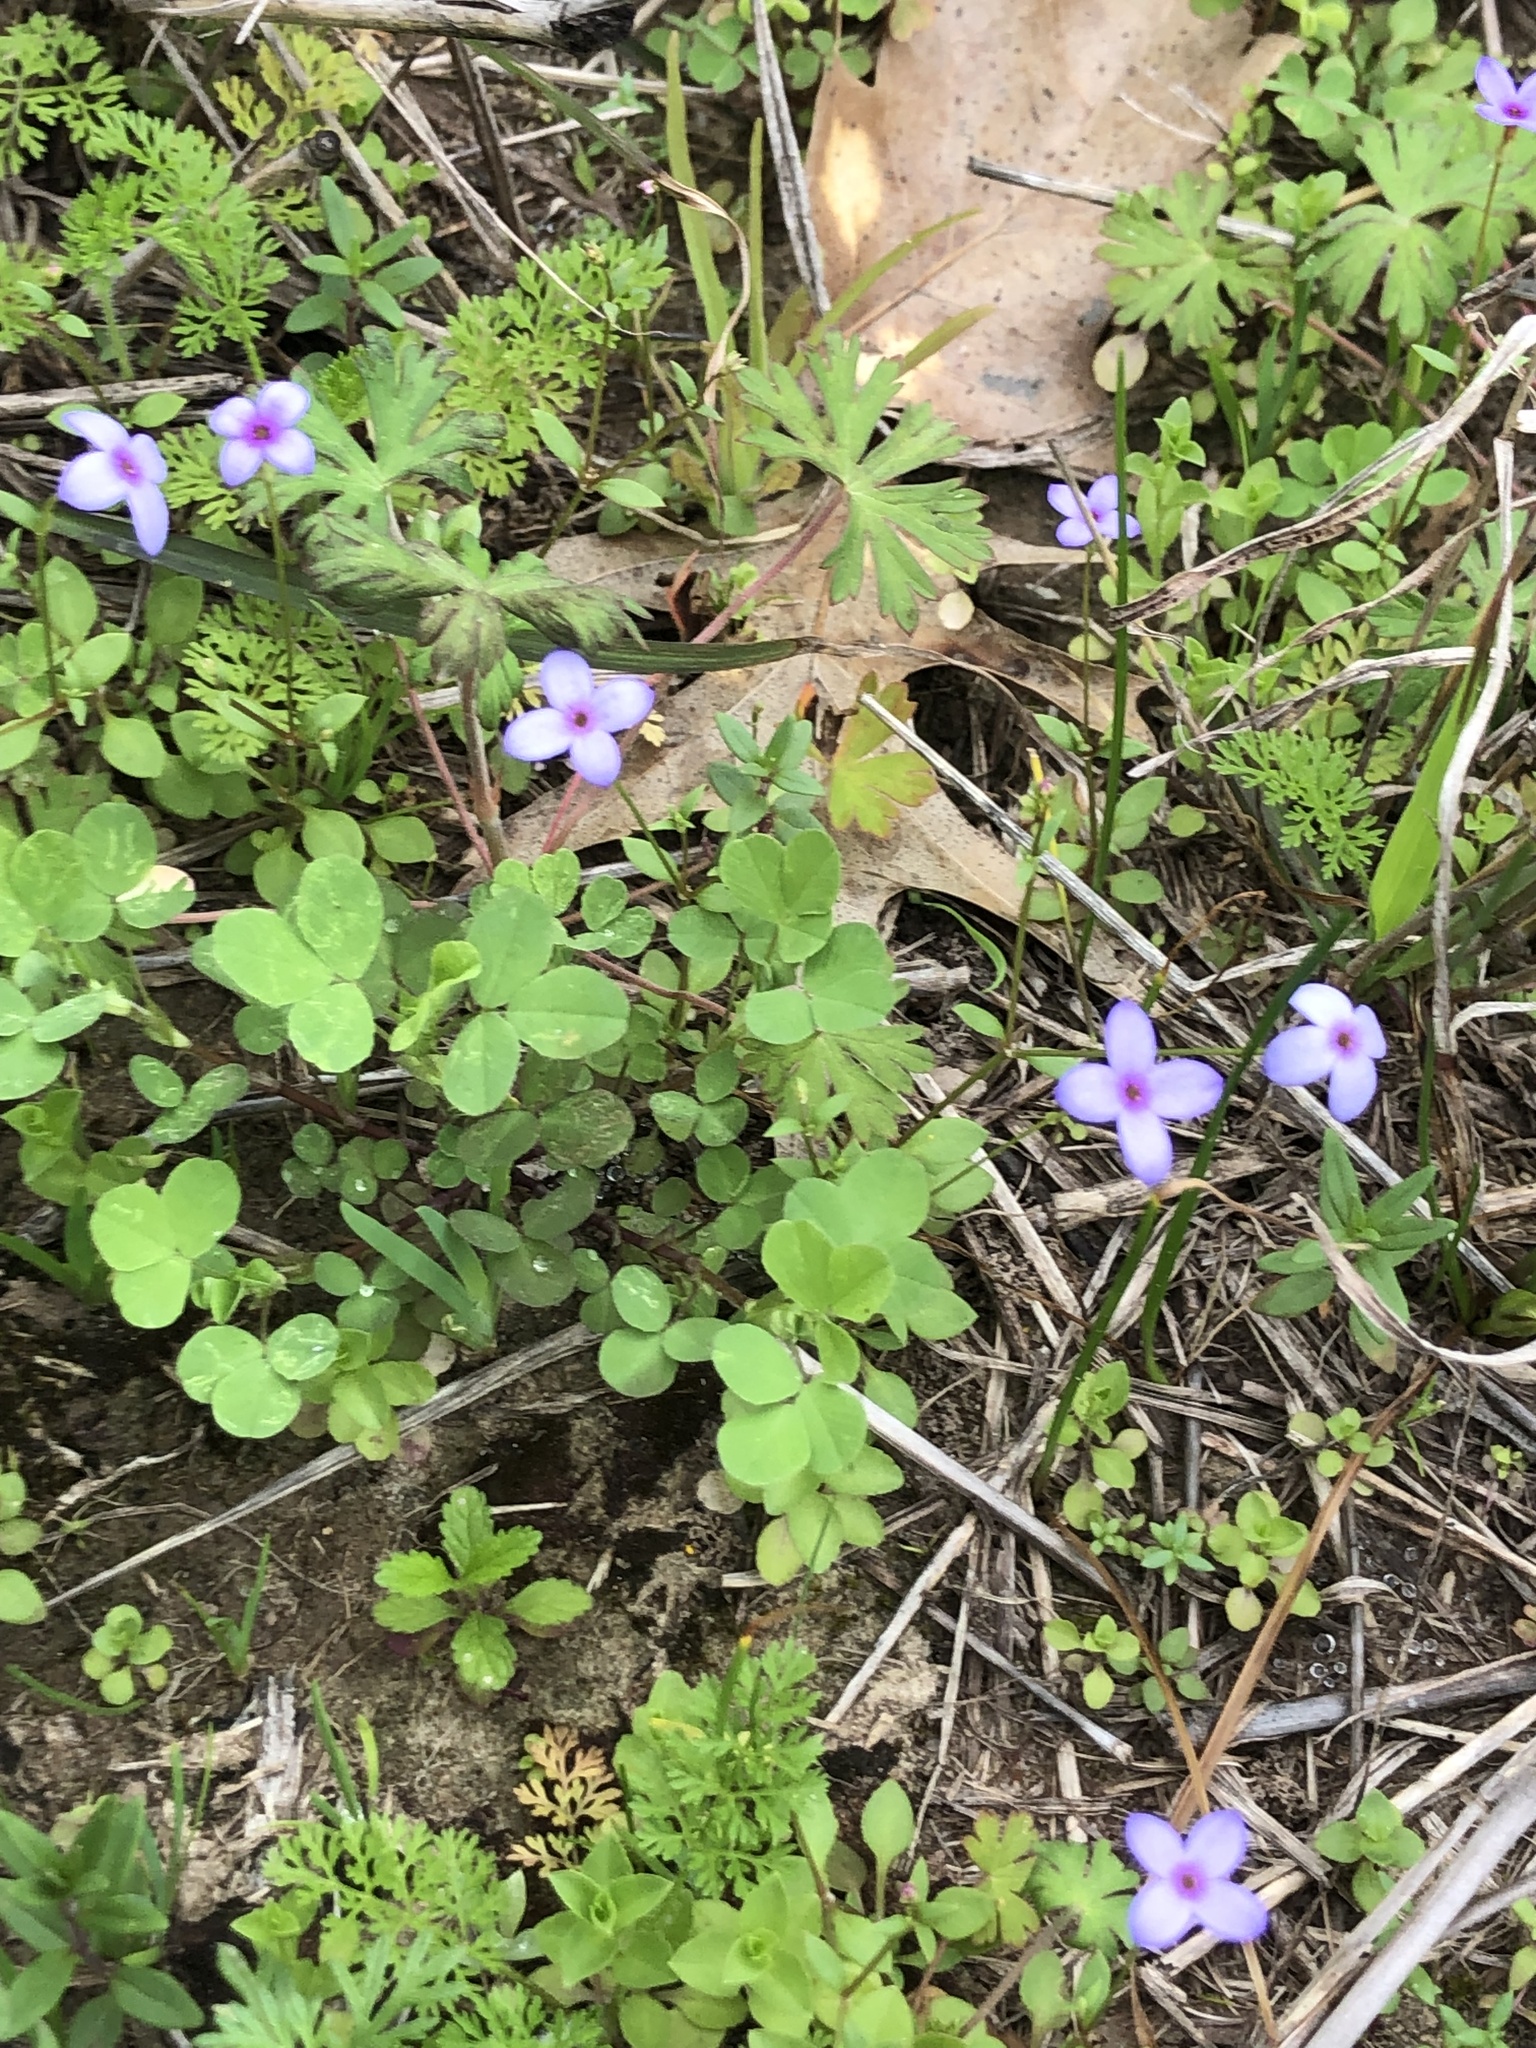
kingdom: Plantae
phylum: Tracheophyta
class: Magnoliopsida
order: Gentianales
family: Rubiaceae
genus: Houstonia
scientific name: Houstonia pusilla
